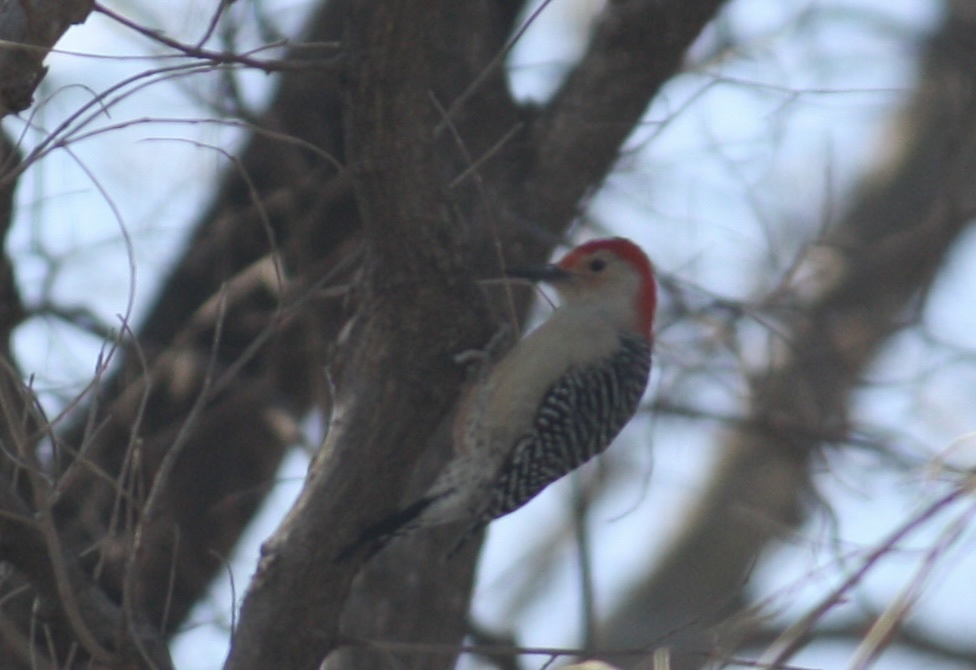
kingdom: Animalia
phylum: Chordata
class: Aves
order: Piciformes
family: Picidae
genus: Melanerpes
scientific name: Melanerpes carolinus
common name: Red-bellied woodpecker
